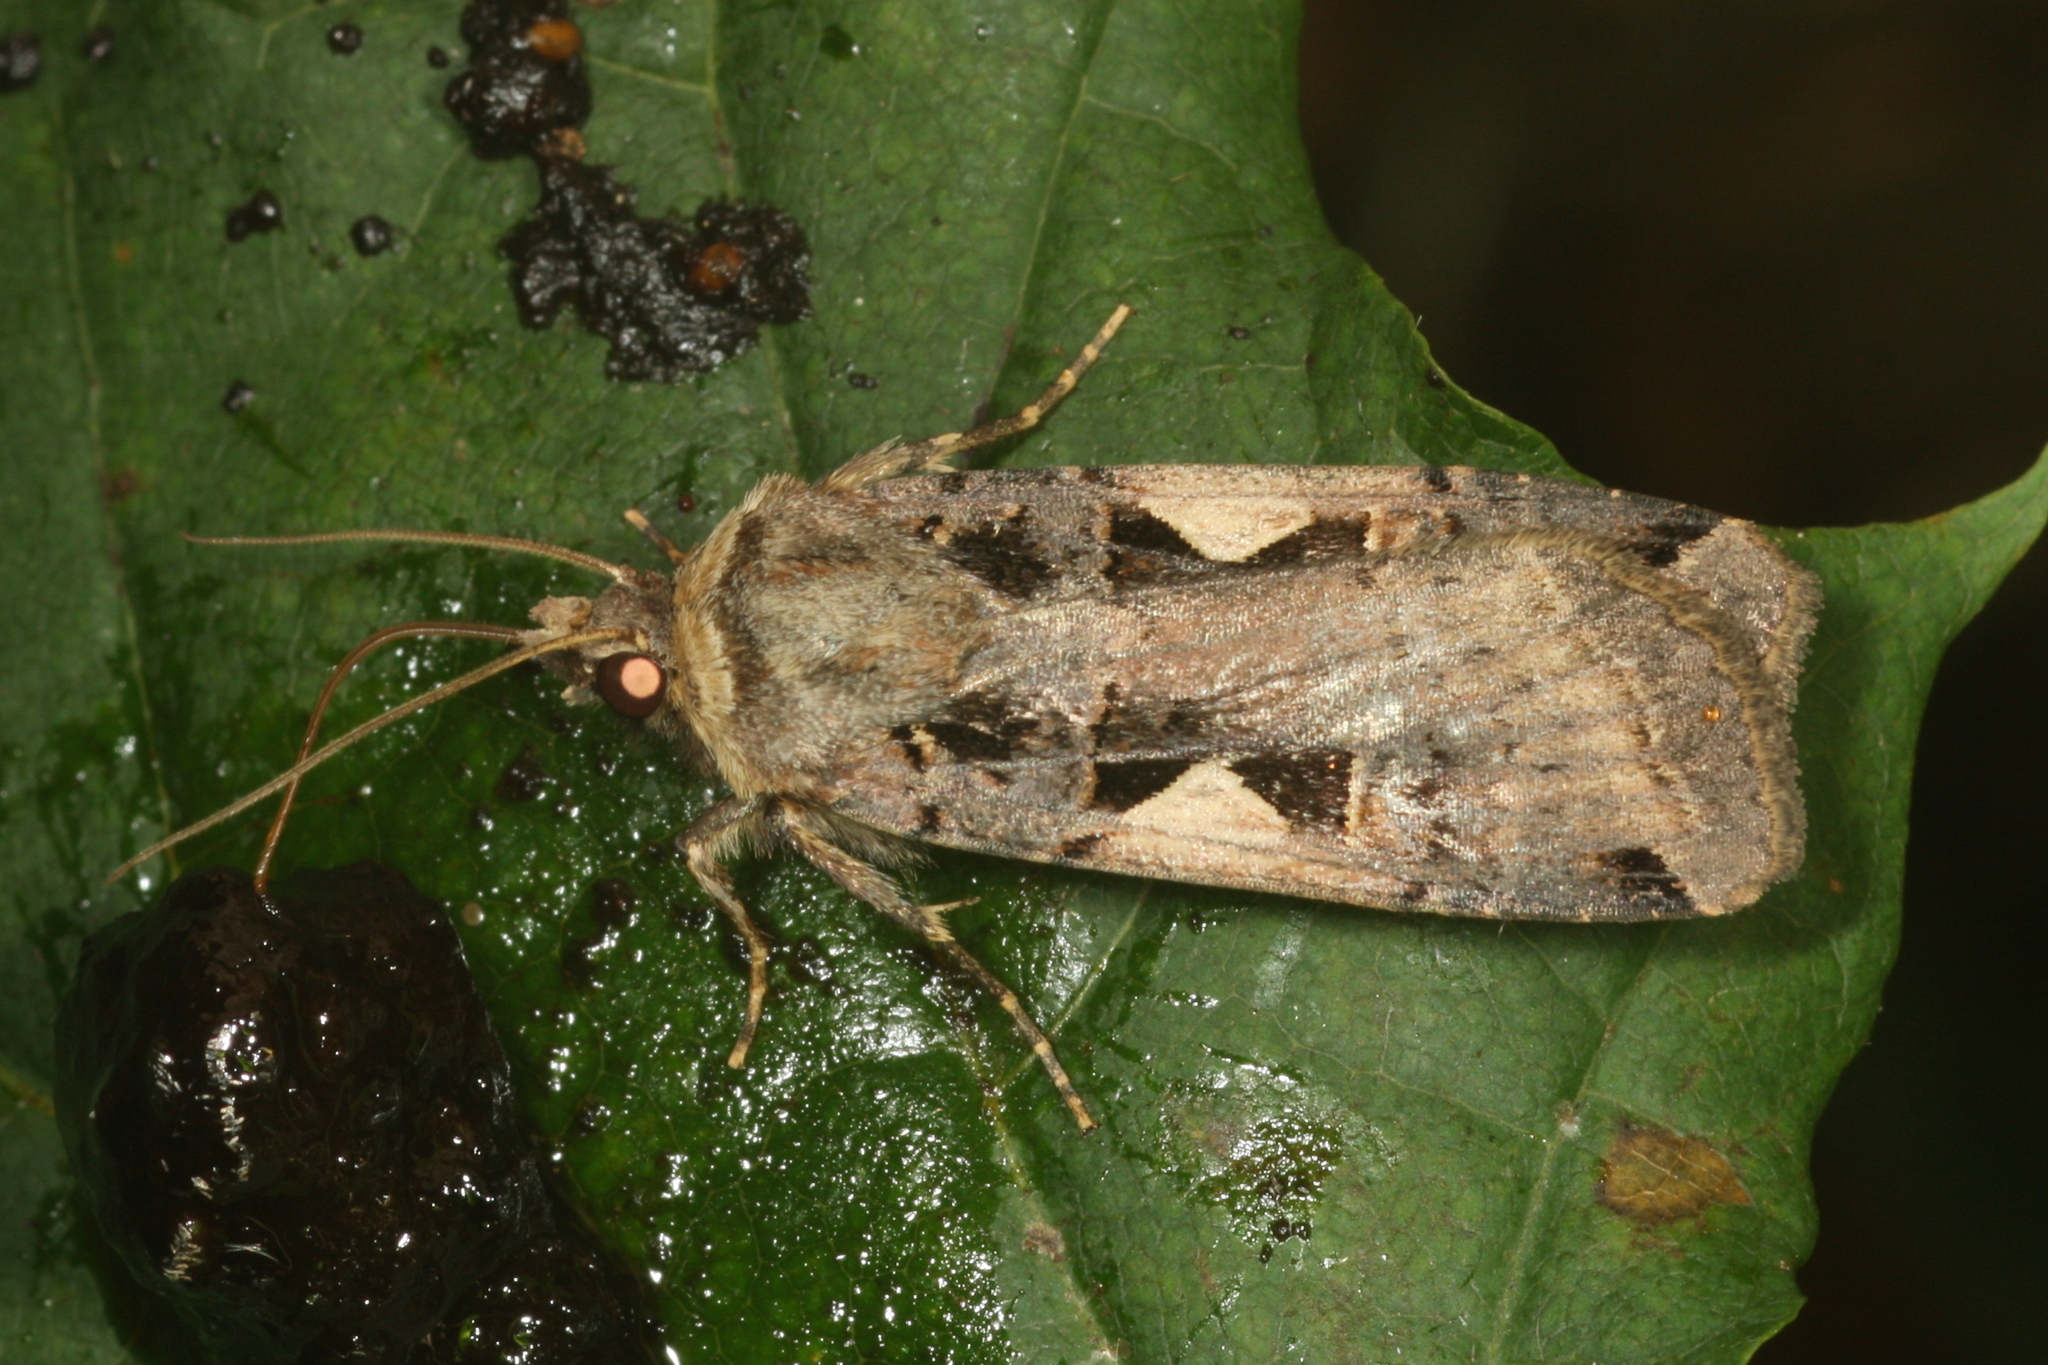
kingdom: Animalia
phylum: Arthropoda
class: Insecta
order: Lepidoptera
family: Noctuidae
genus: Xestia
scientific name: Xestia c-nigrum
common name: Setaceous hebrew character
